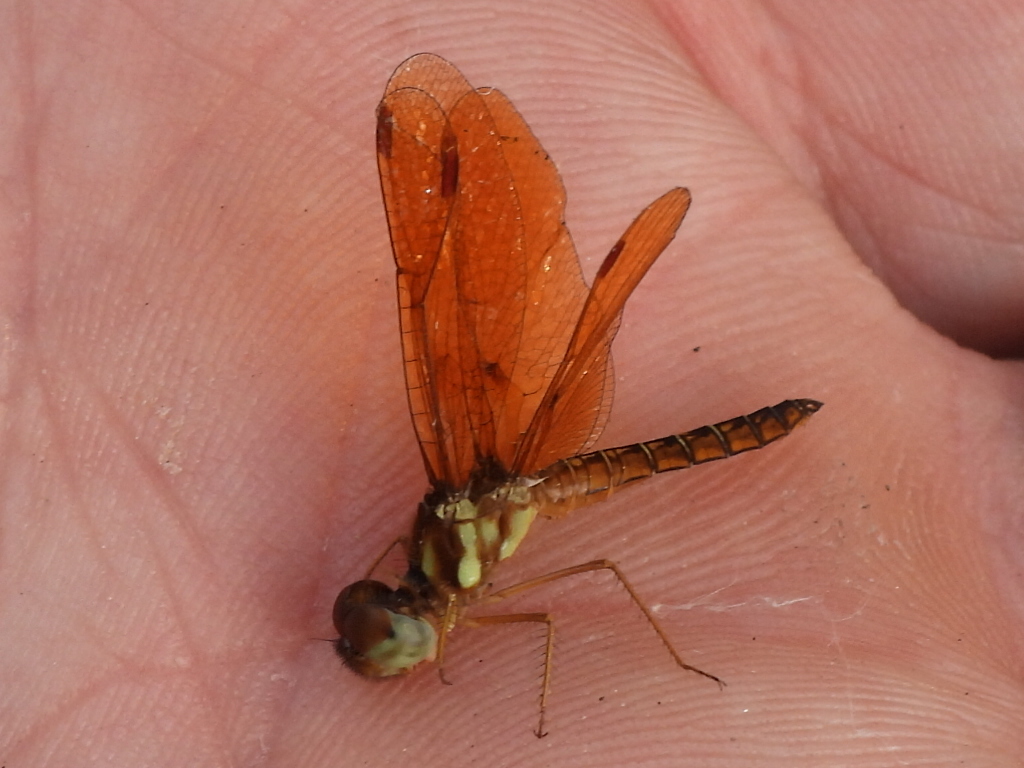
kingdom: Animalia
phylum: Arthropoda
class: Insecta
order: Odonata
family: Libellulidae
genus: Perithemis
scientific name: Perithemis tenera
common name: Eastern amberwing
